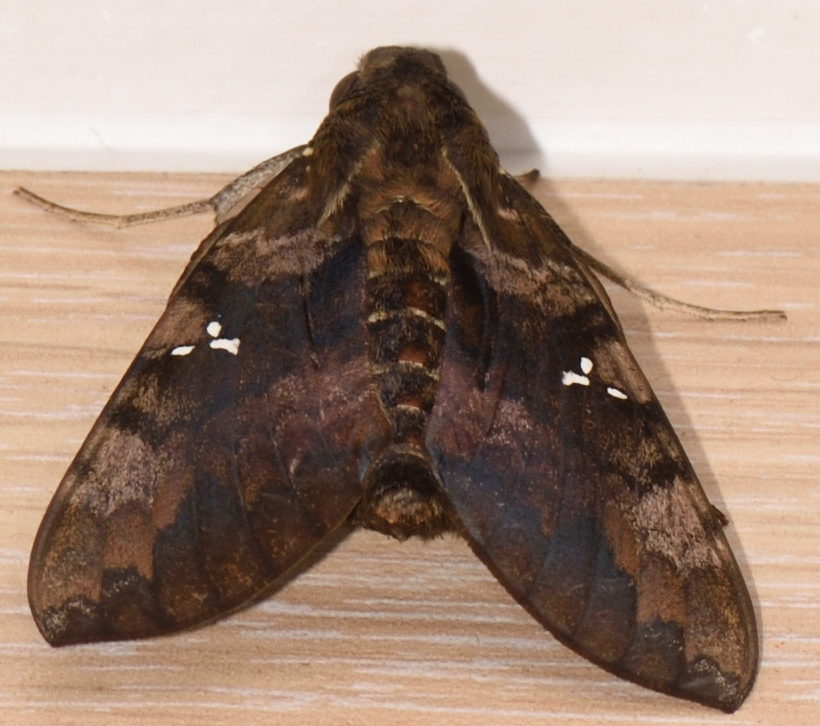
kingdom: Animalia
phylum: Arthropoda
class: Insecta
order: Lepidoptera
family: Sphingidae
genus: Nephele
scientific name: Nephele accentifera
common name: Accented hawk-moth
